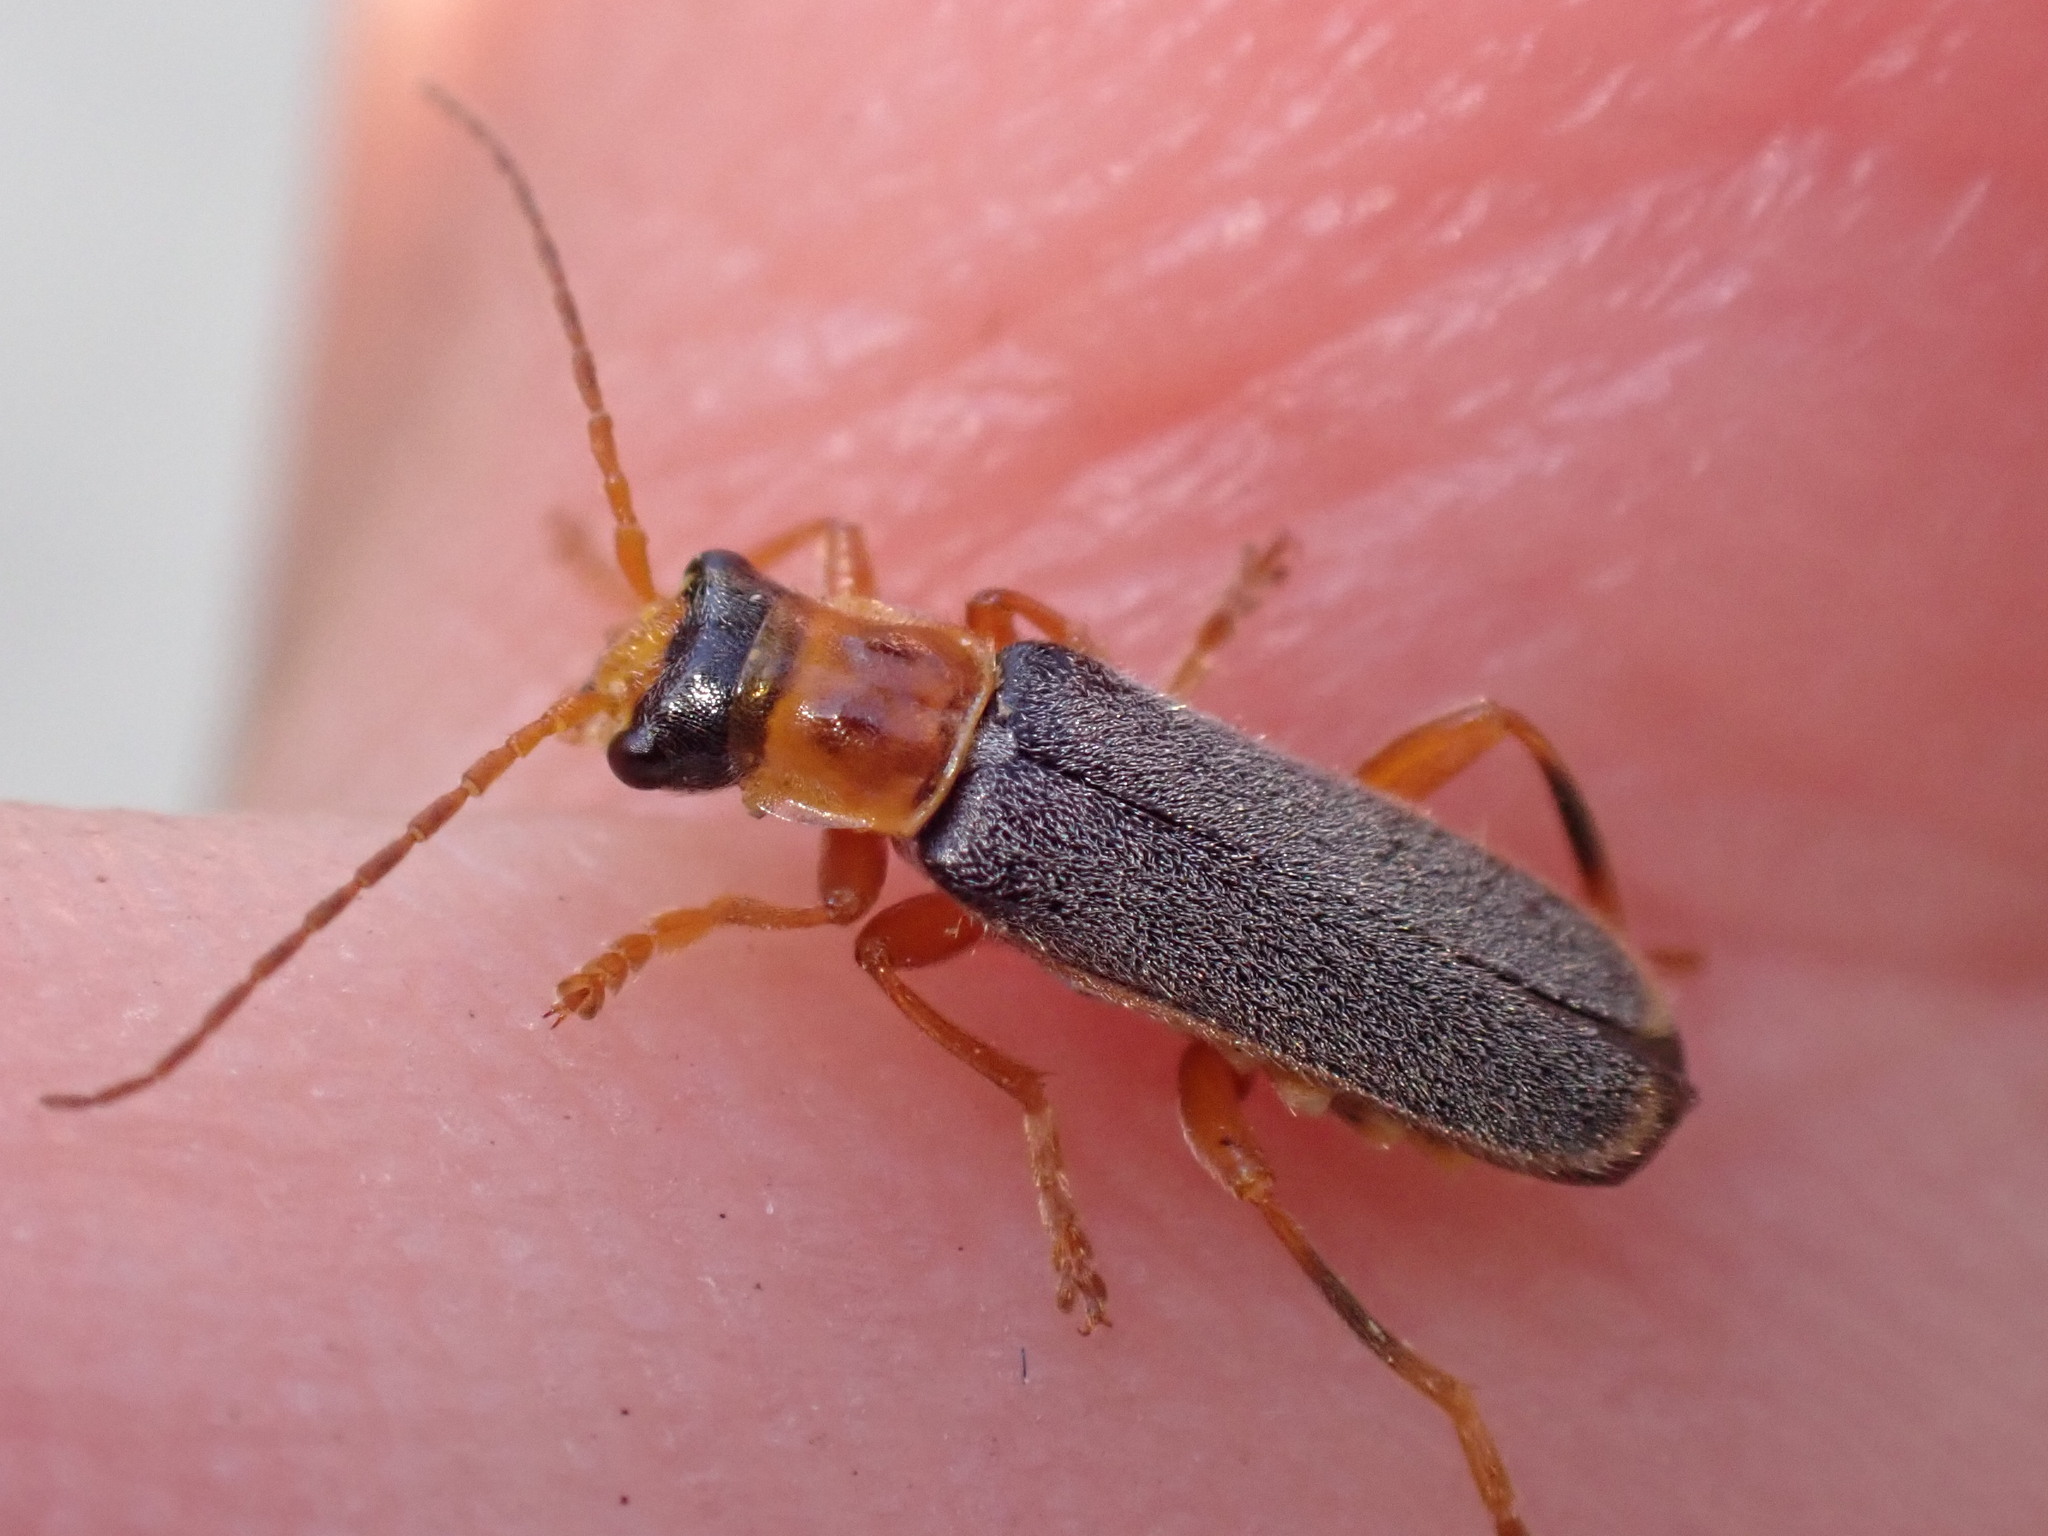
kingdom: Animalia
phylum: Arthropoda
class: Insecta
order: Coleoptera
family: Cantharidae
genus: Cantharis
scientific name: Cantharis lateralis
